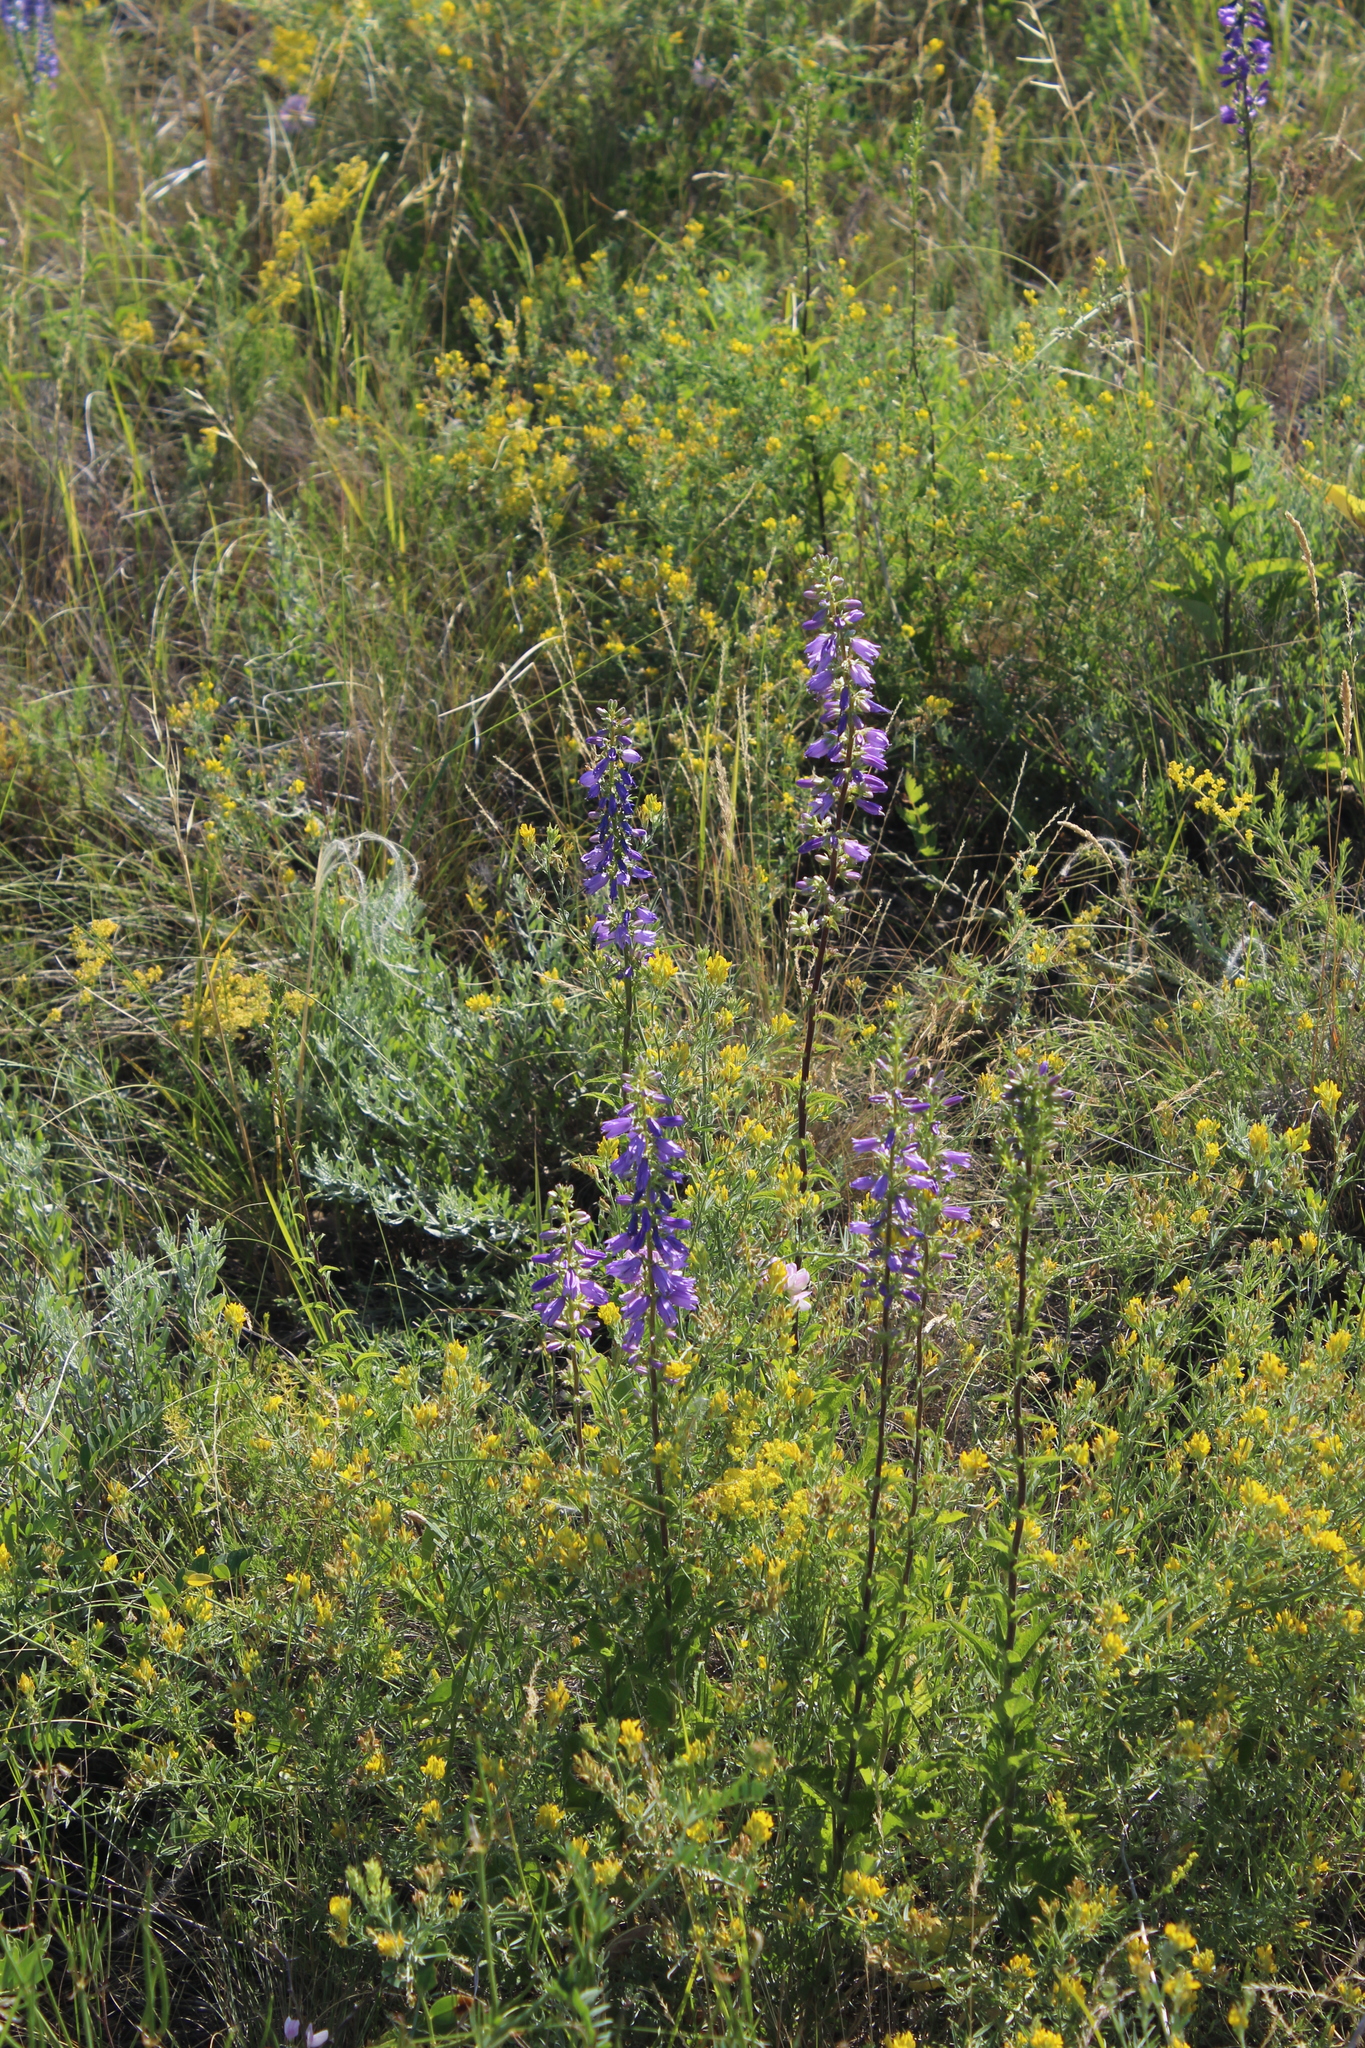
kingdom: Plantae
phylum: Tracheophyta
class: Magnoliopsida
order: Asterales
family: Campanulaceae
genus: Campanula
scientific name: Campanula bononiensis
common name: Pale bellflower
